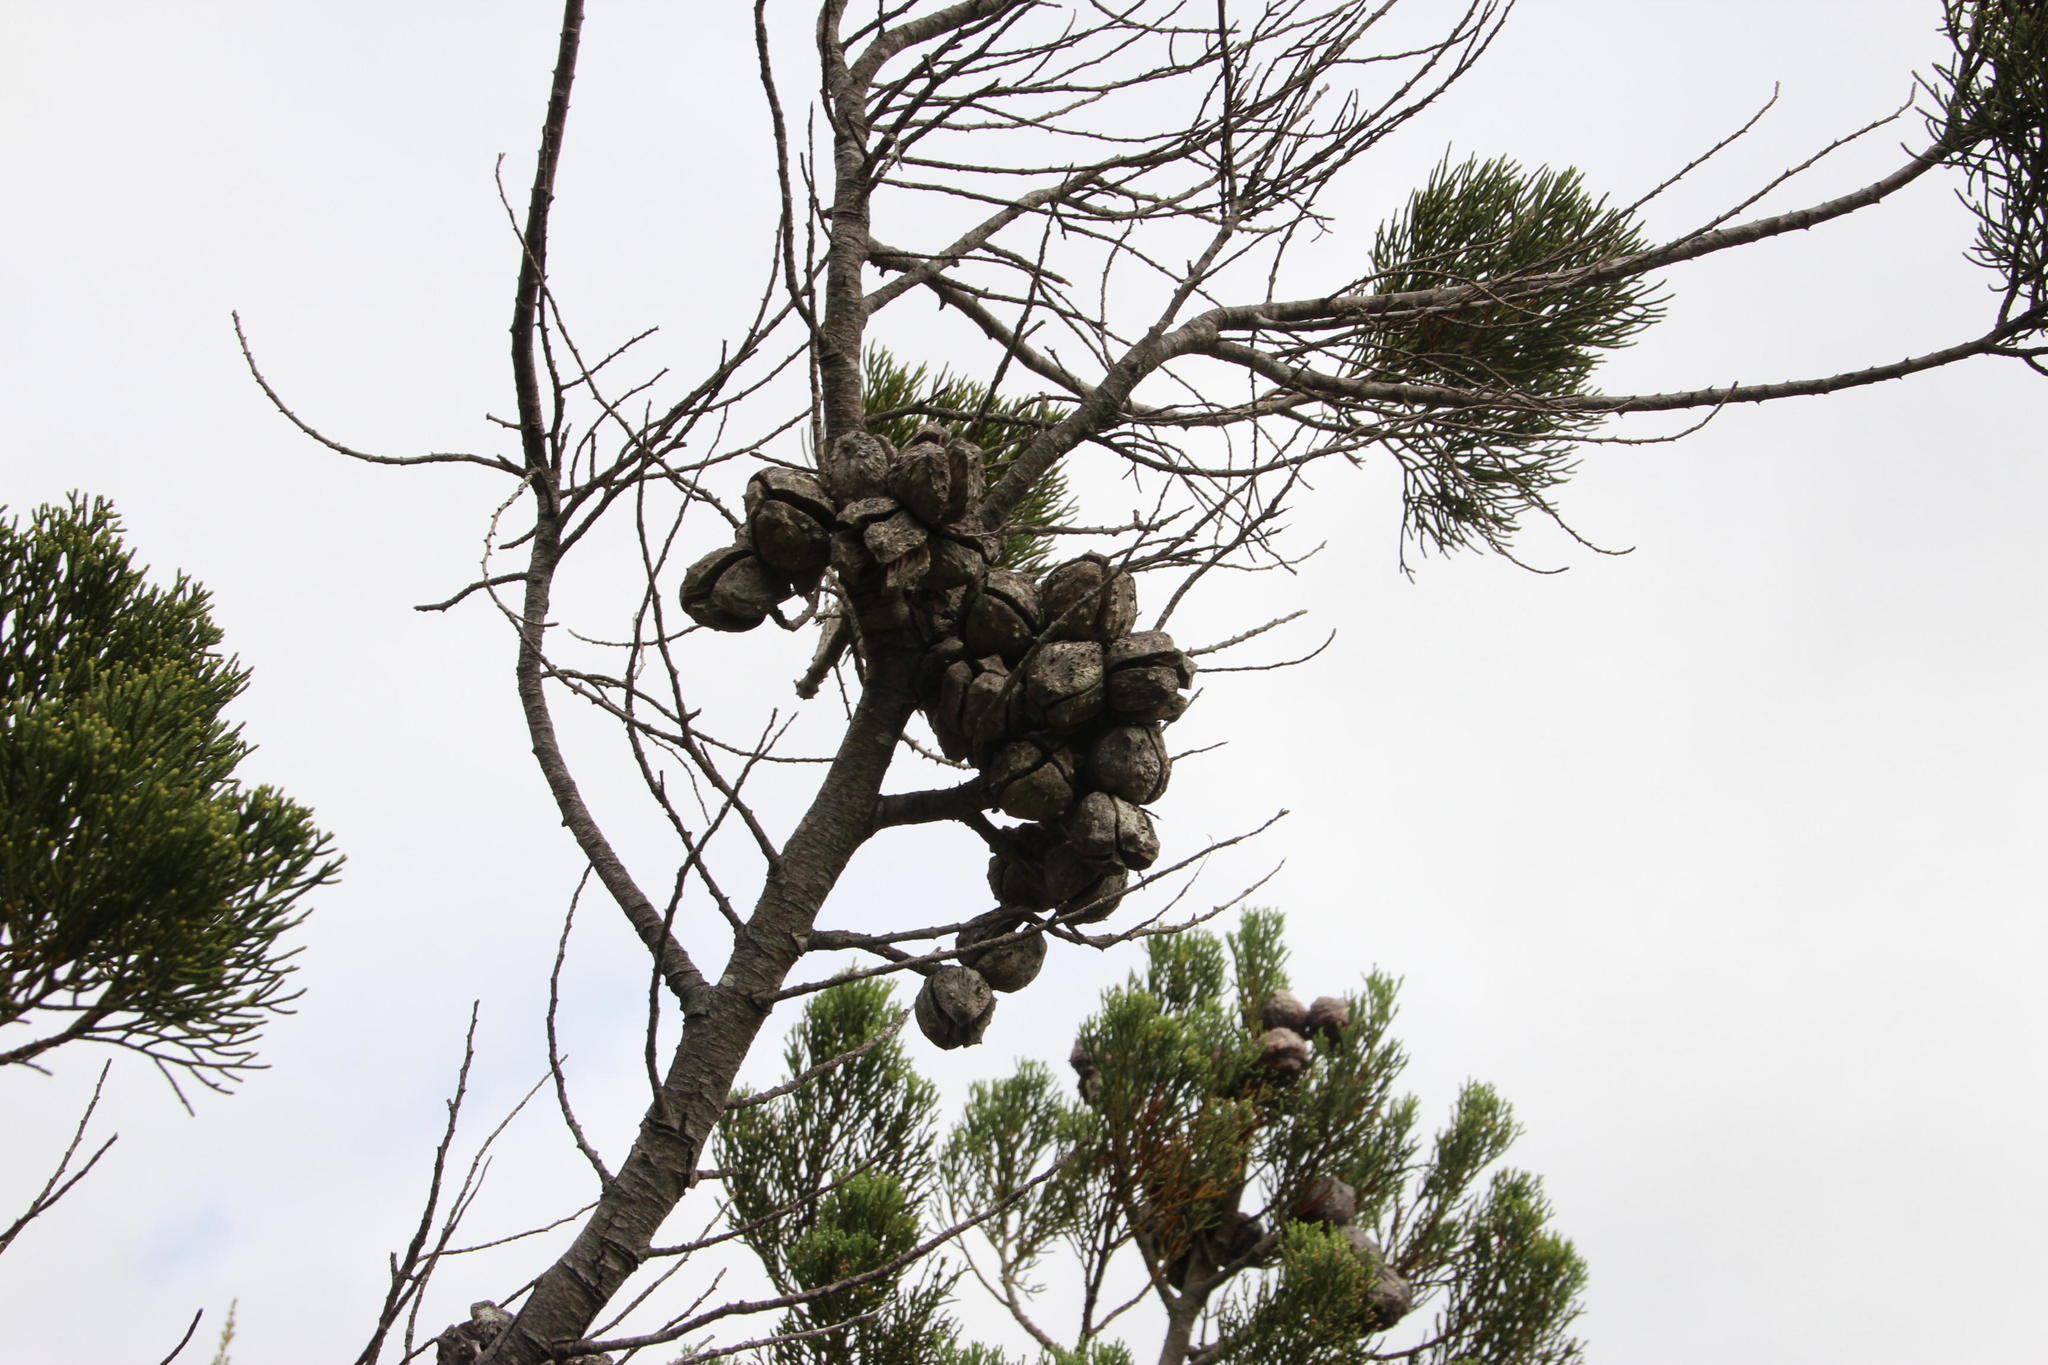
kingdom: Plantae
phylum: Tracheophyta
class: Pinopsida
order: Pinales
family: Cupressaceae
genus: Widdringtonia
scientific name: Widdringtonia nodiflora
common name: Cape cypress
